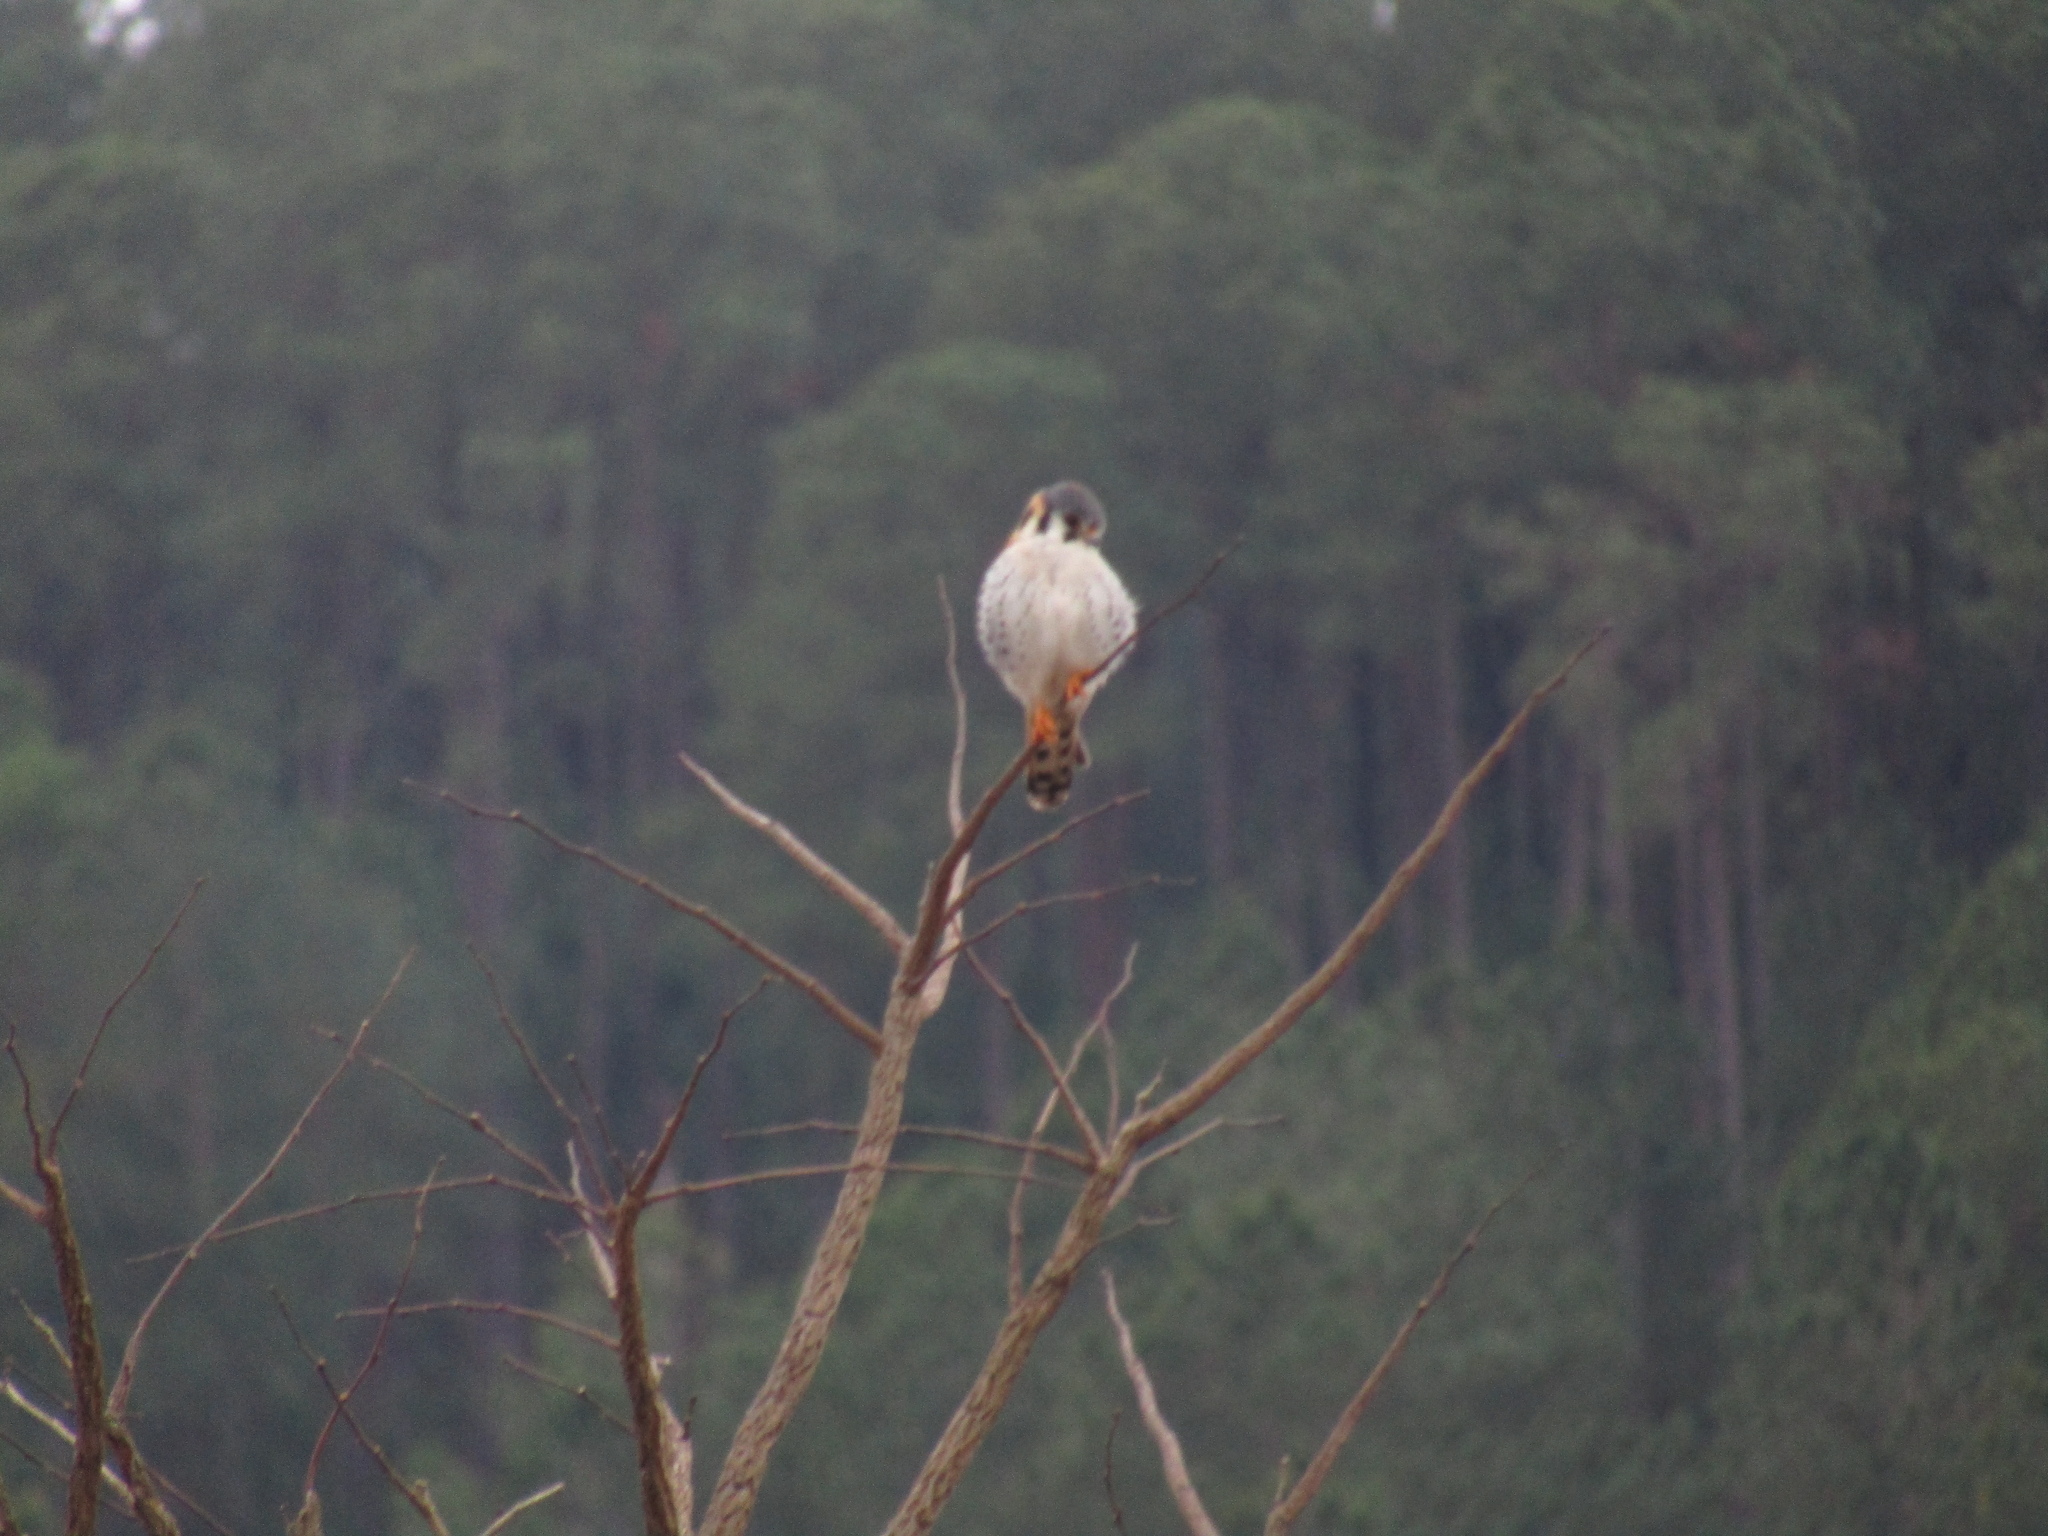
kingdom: Animalia
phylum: Chordata
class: Aves
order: Falconiformes
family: Falconidae
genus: Falco
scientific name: Falco sparverius
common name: American kestrel
